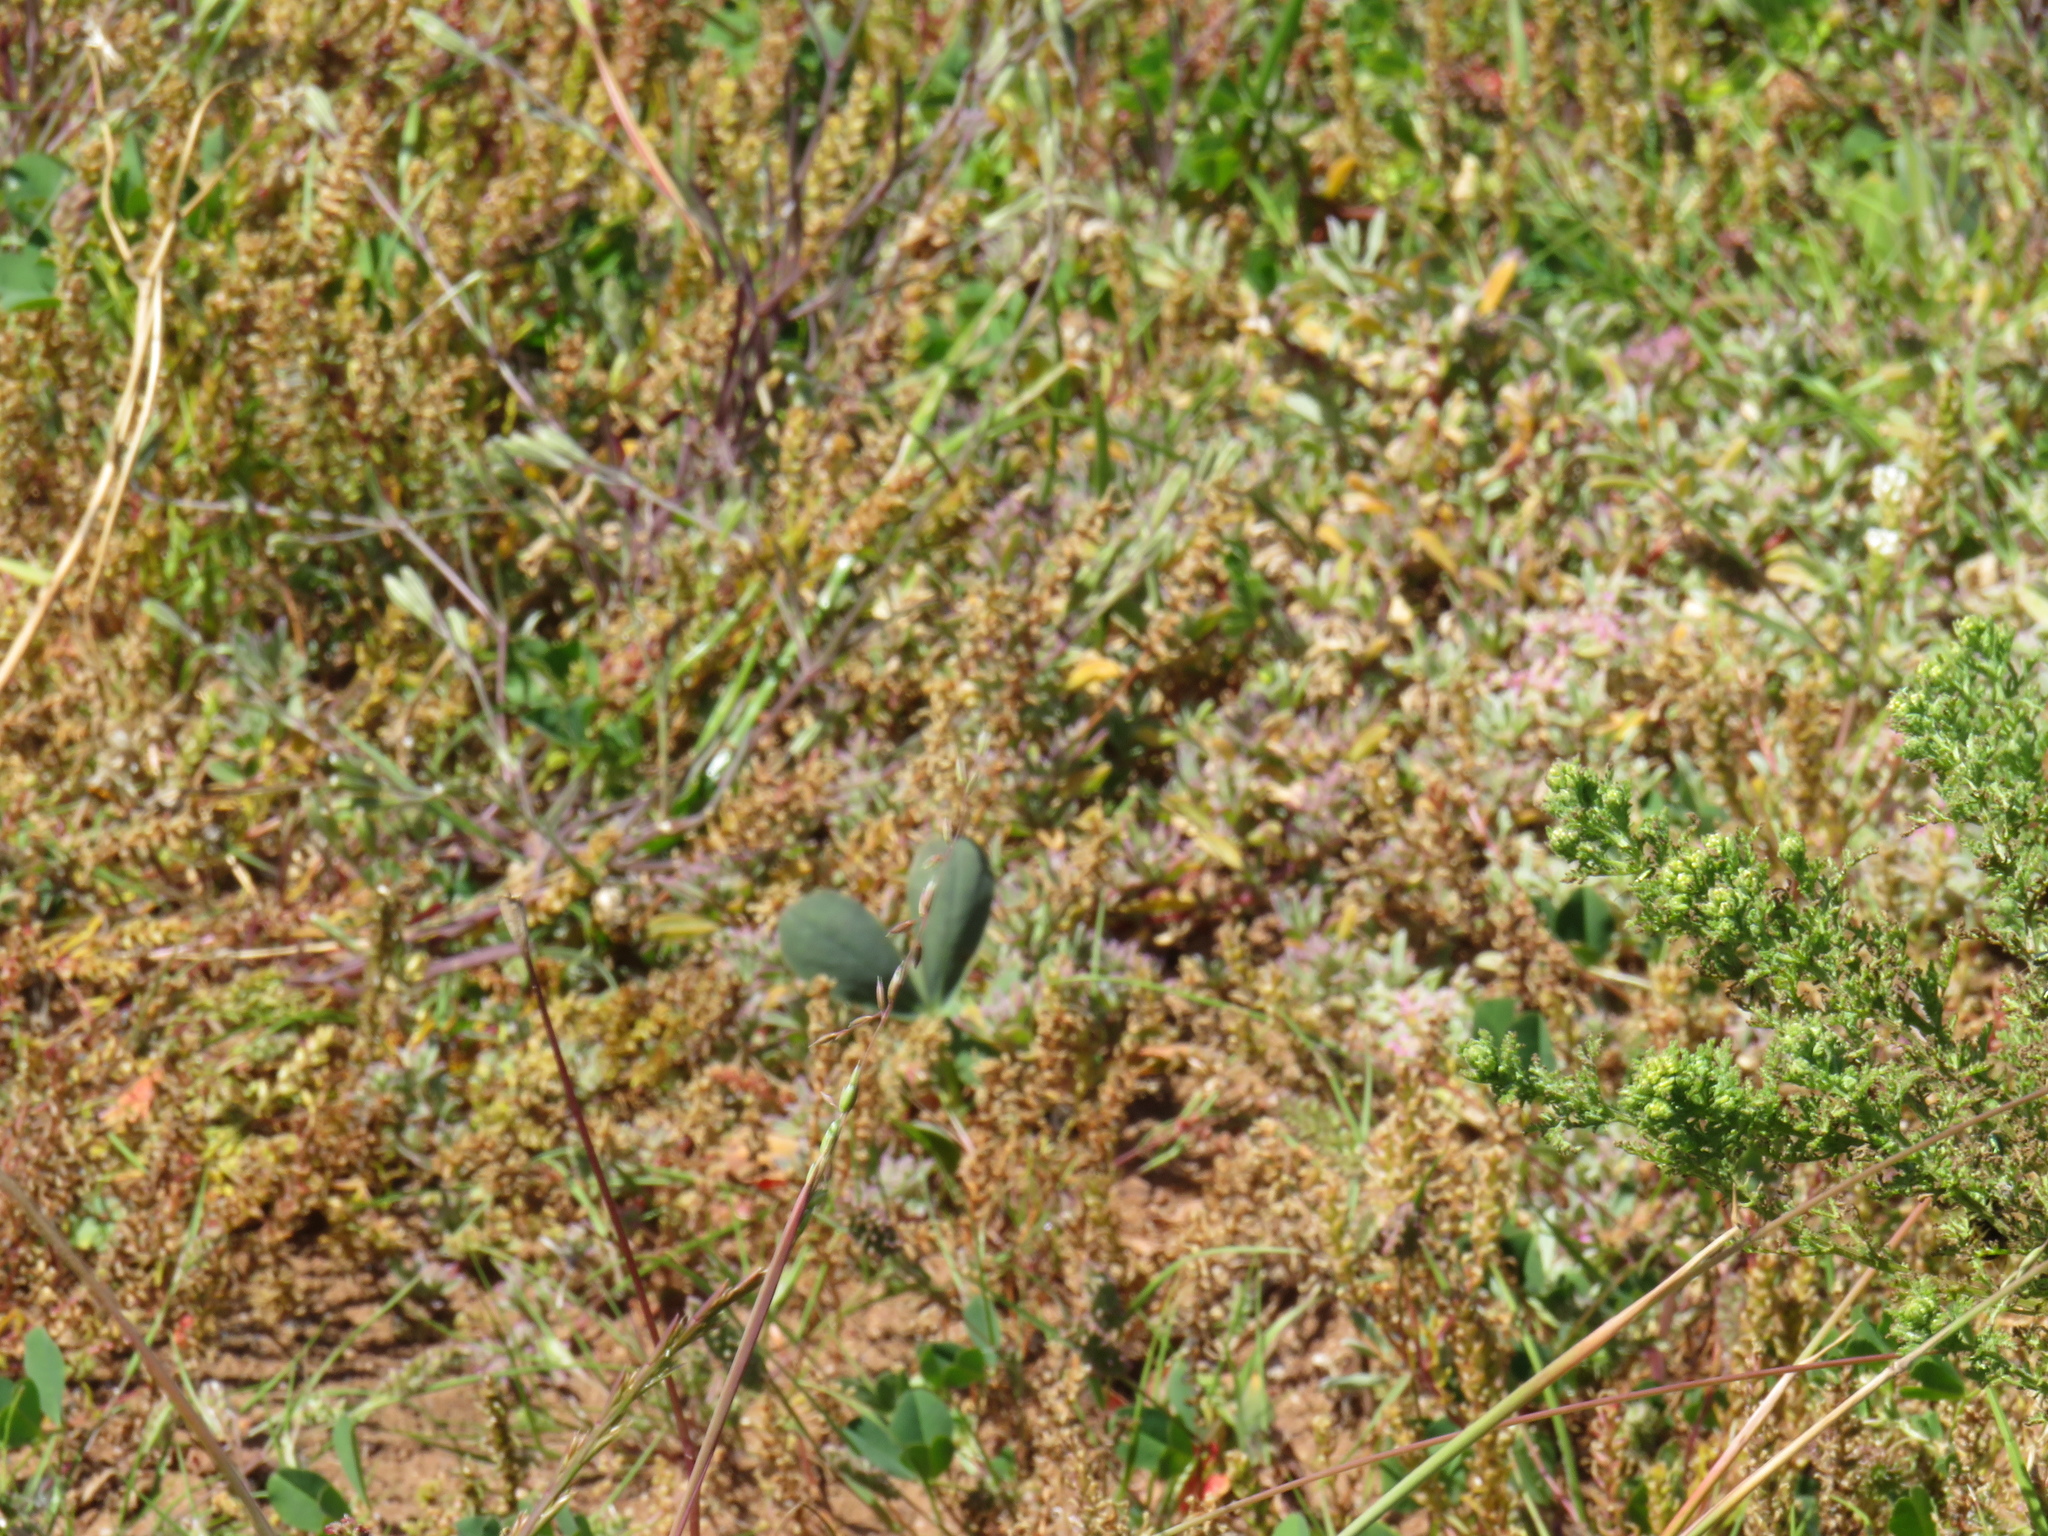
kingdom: Plantae
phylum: Tracheophyta
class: Magnoliopsida
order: Oxalidales
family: Oxalidaceae
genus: Oxalis
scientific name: Oxalis flava
